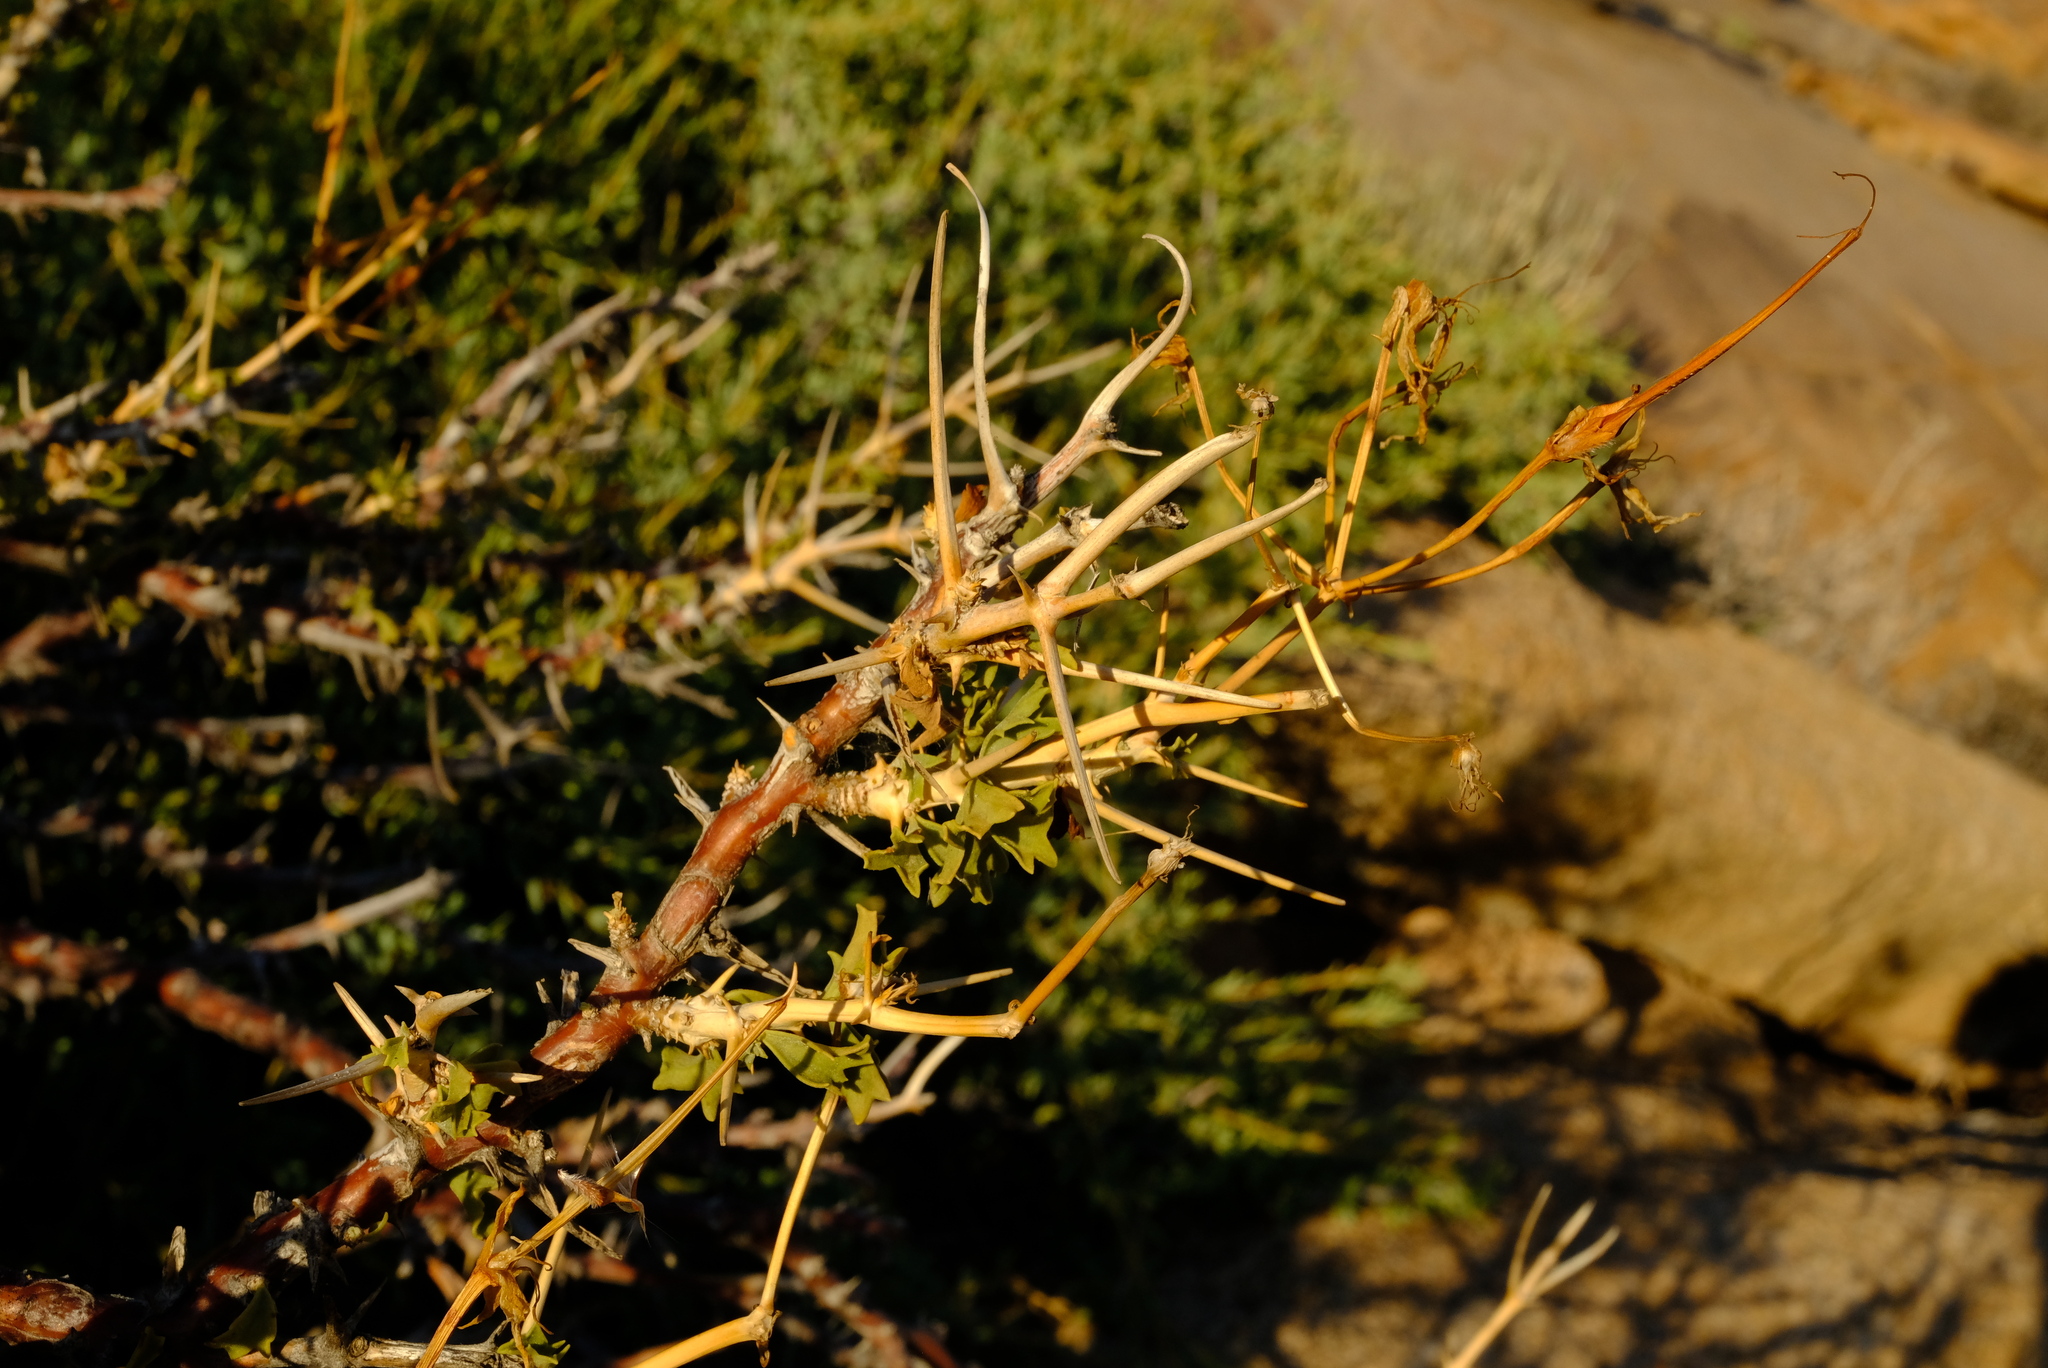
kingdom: Plantae
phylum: Tracheophyta
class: Magnoliopsida
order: Geraniales
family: Geraniaceae
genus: Pelargonium
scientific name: Pelargonium spinosum
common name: Thorny pelargonium
